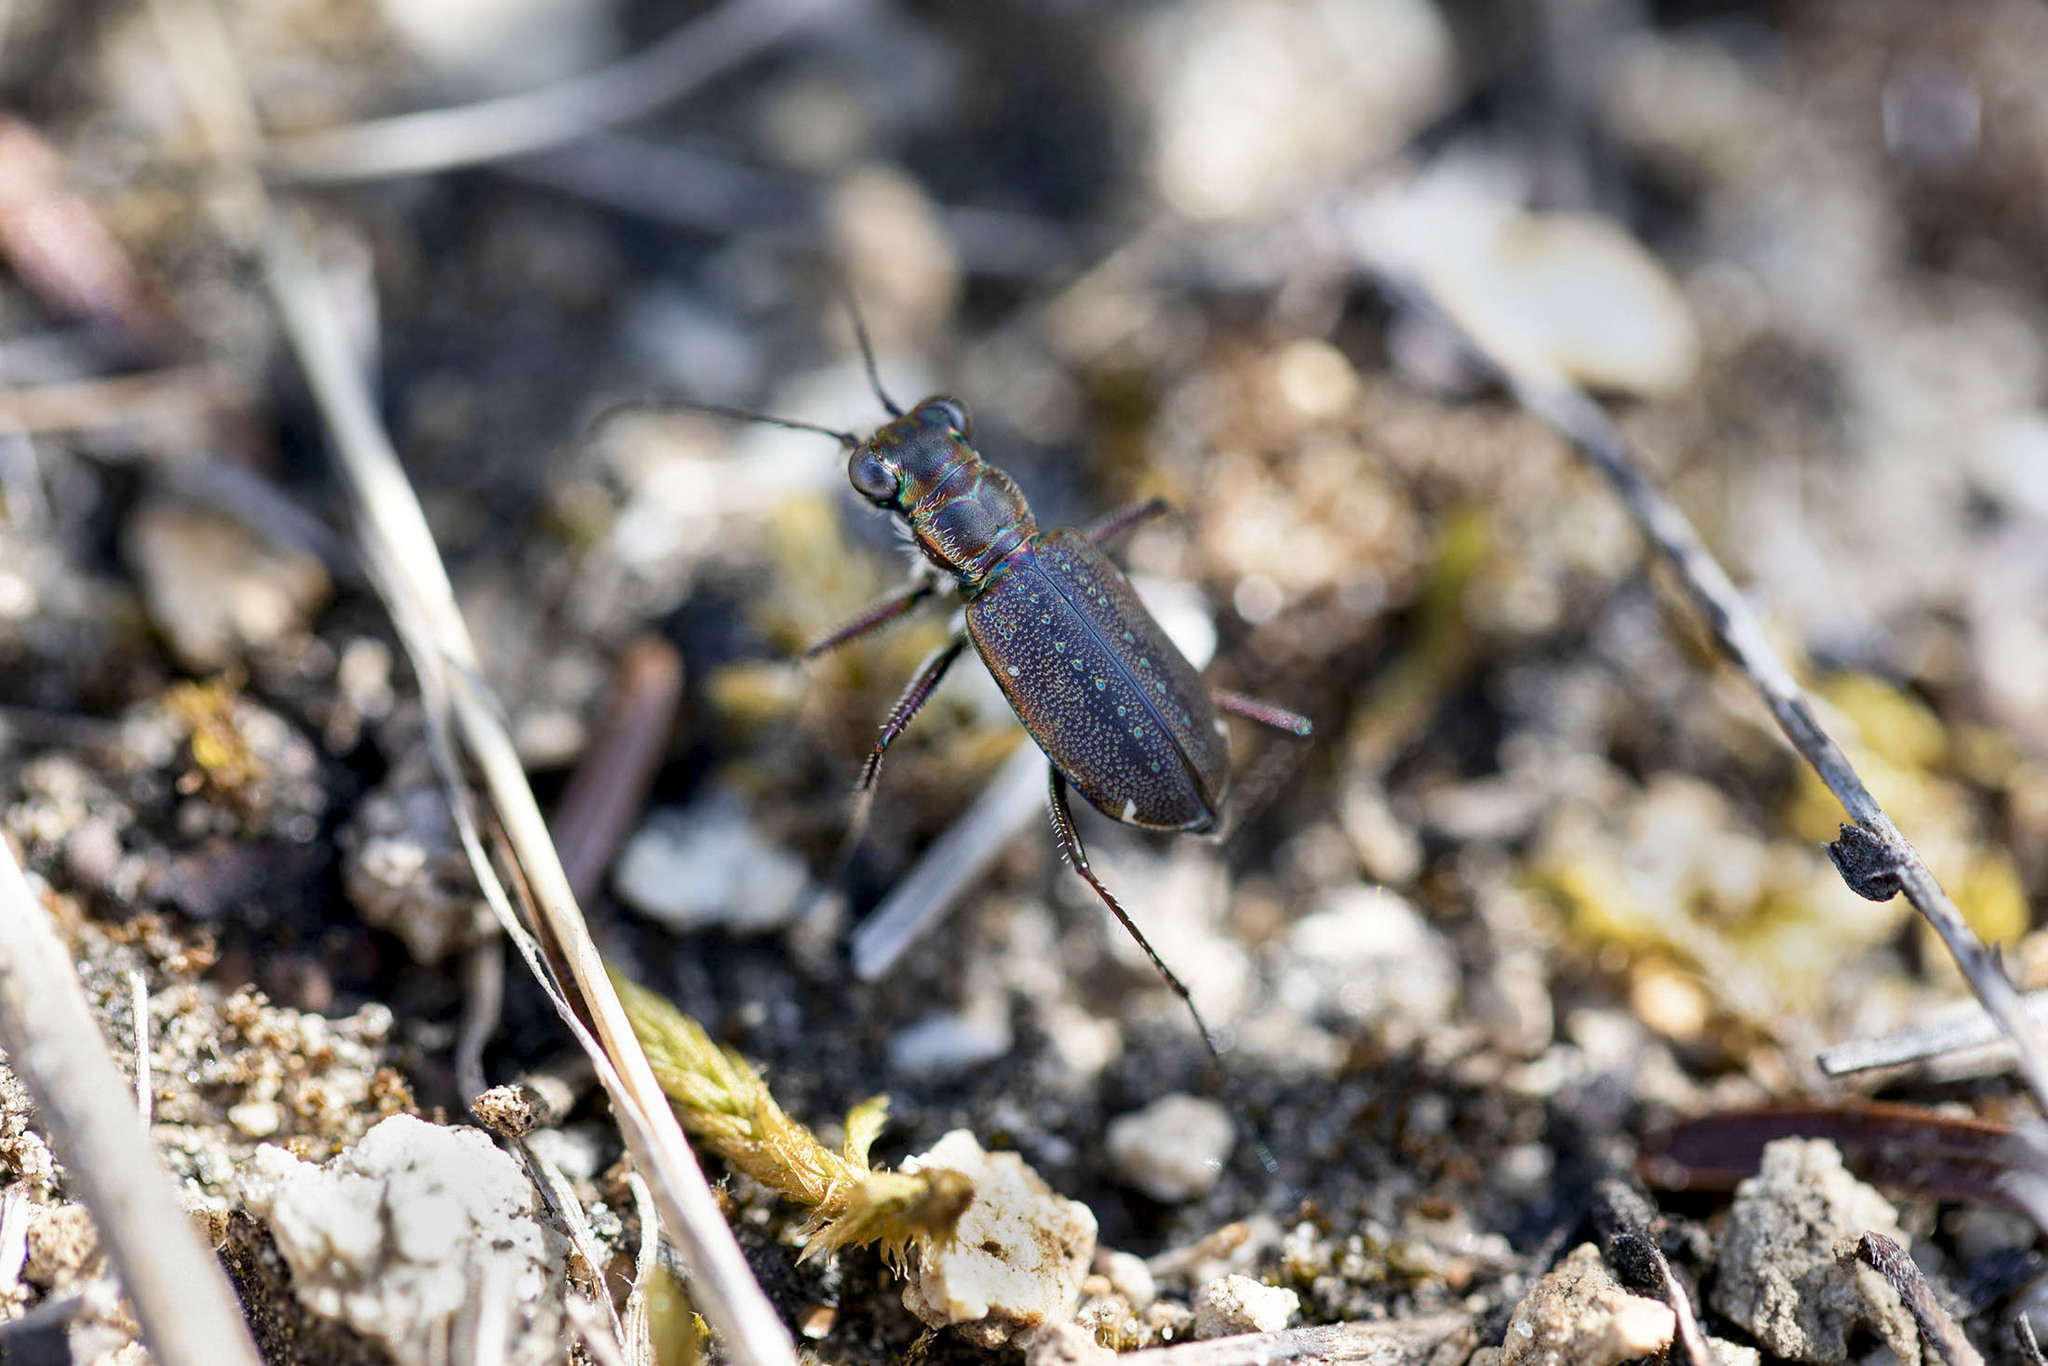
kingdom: Animalia
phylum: Arthropoda
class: Insecta
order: Coleoptera
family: Carabidae
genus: Cicindela
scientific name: Cicindela punctulata
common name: Punctured tiger beetle
